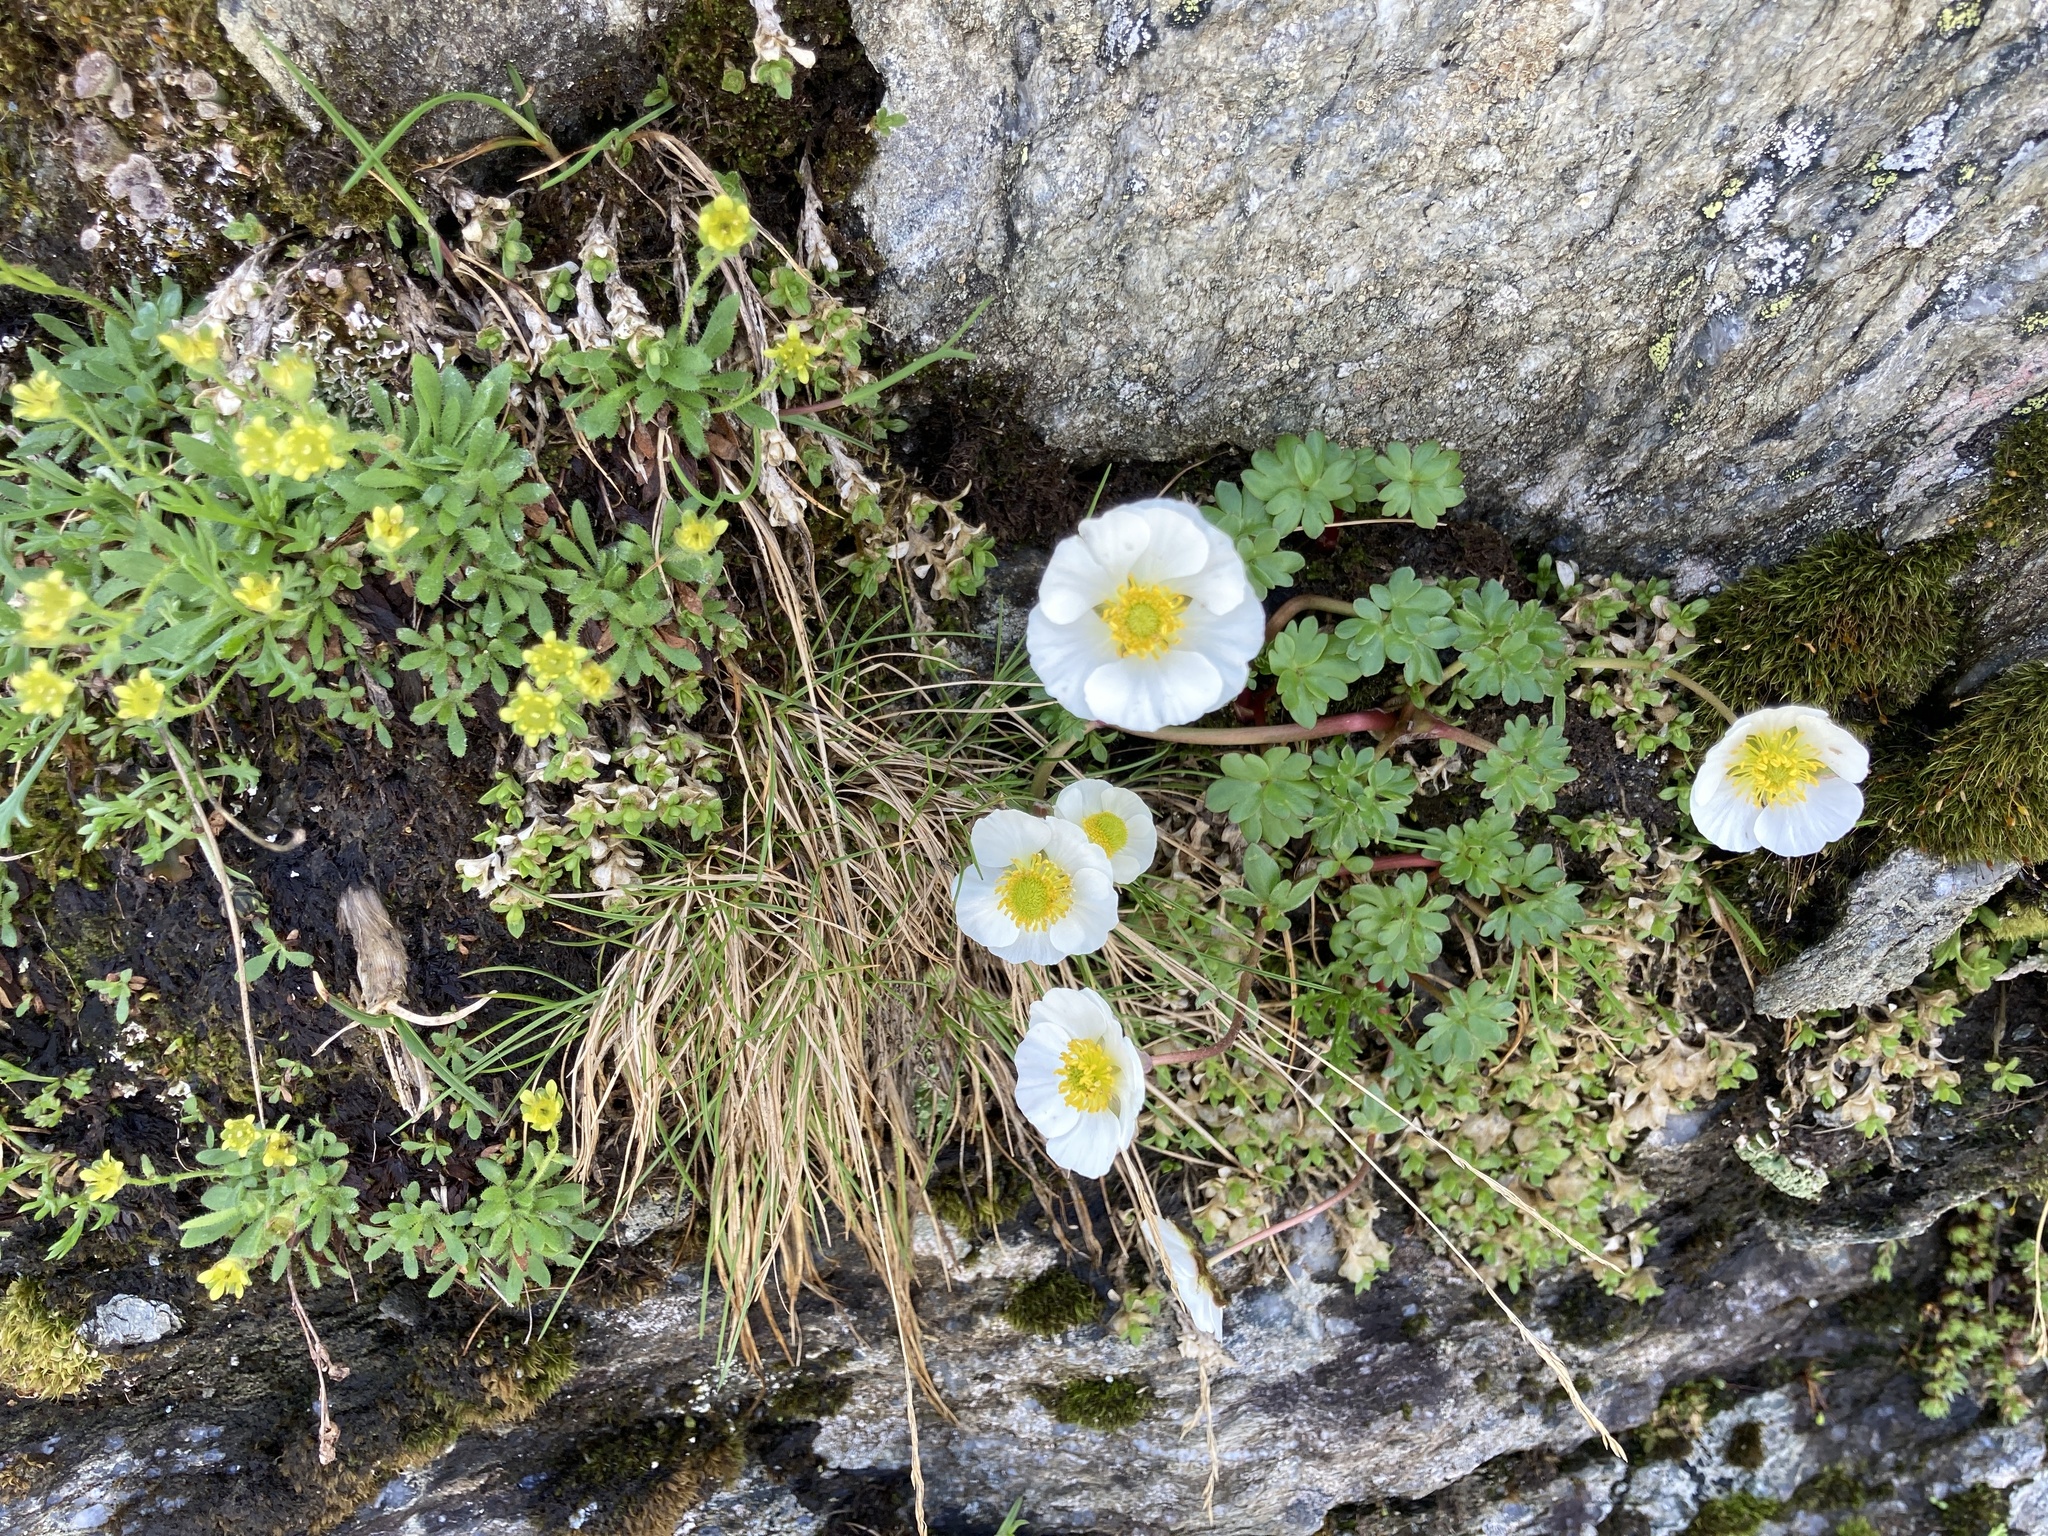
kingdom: Plantae
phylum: Tracheophyta
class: Magnoliopsida
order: Ranunculales
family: Ranunculaceae
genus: Ranunculus
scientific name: Ranunculus glacialis
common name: Glacier buttercup
